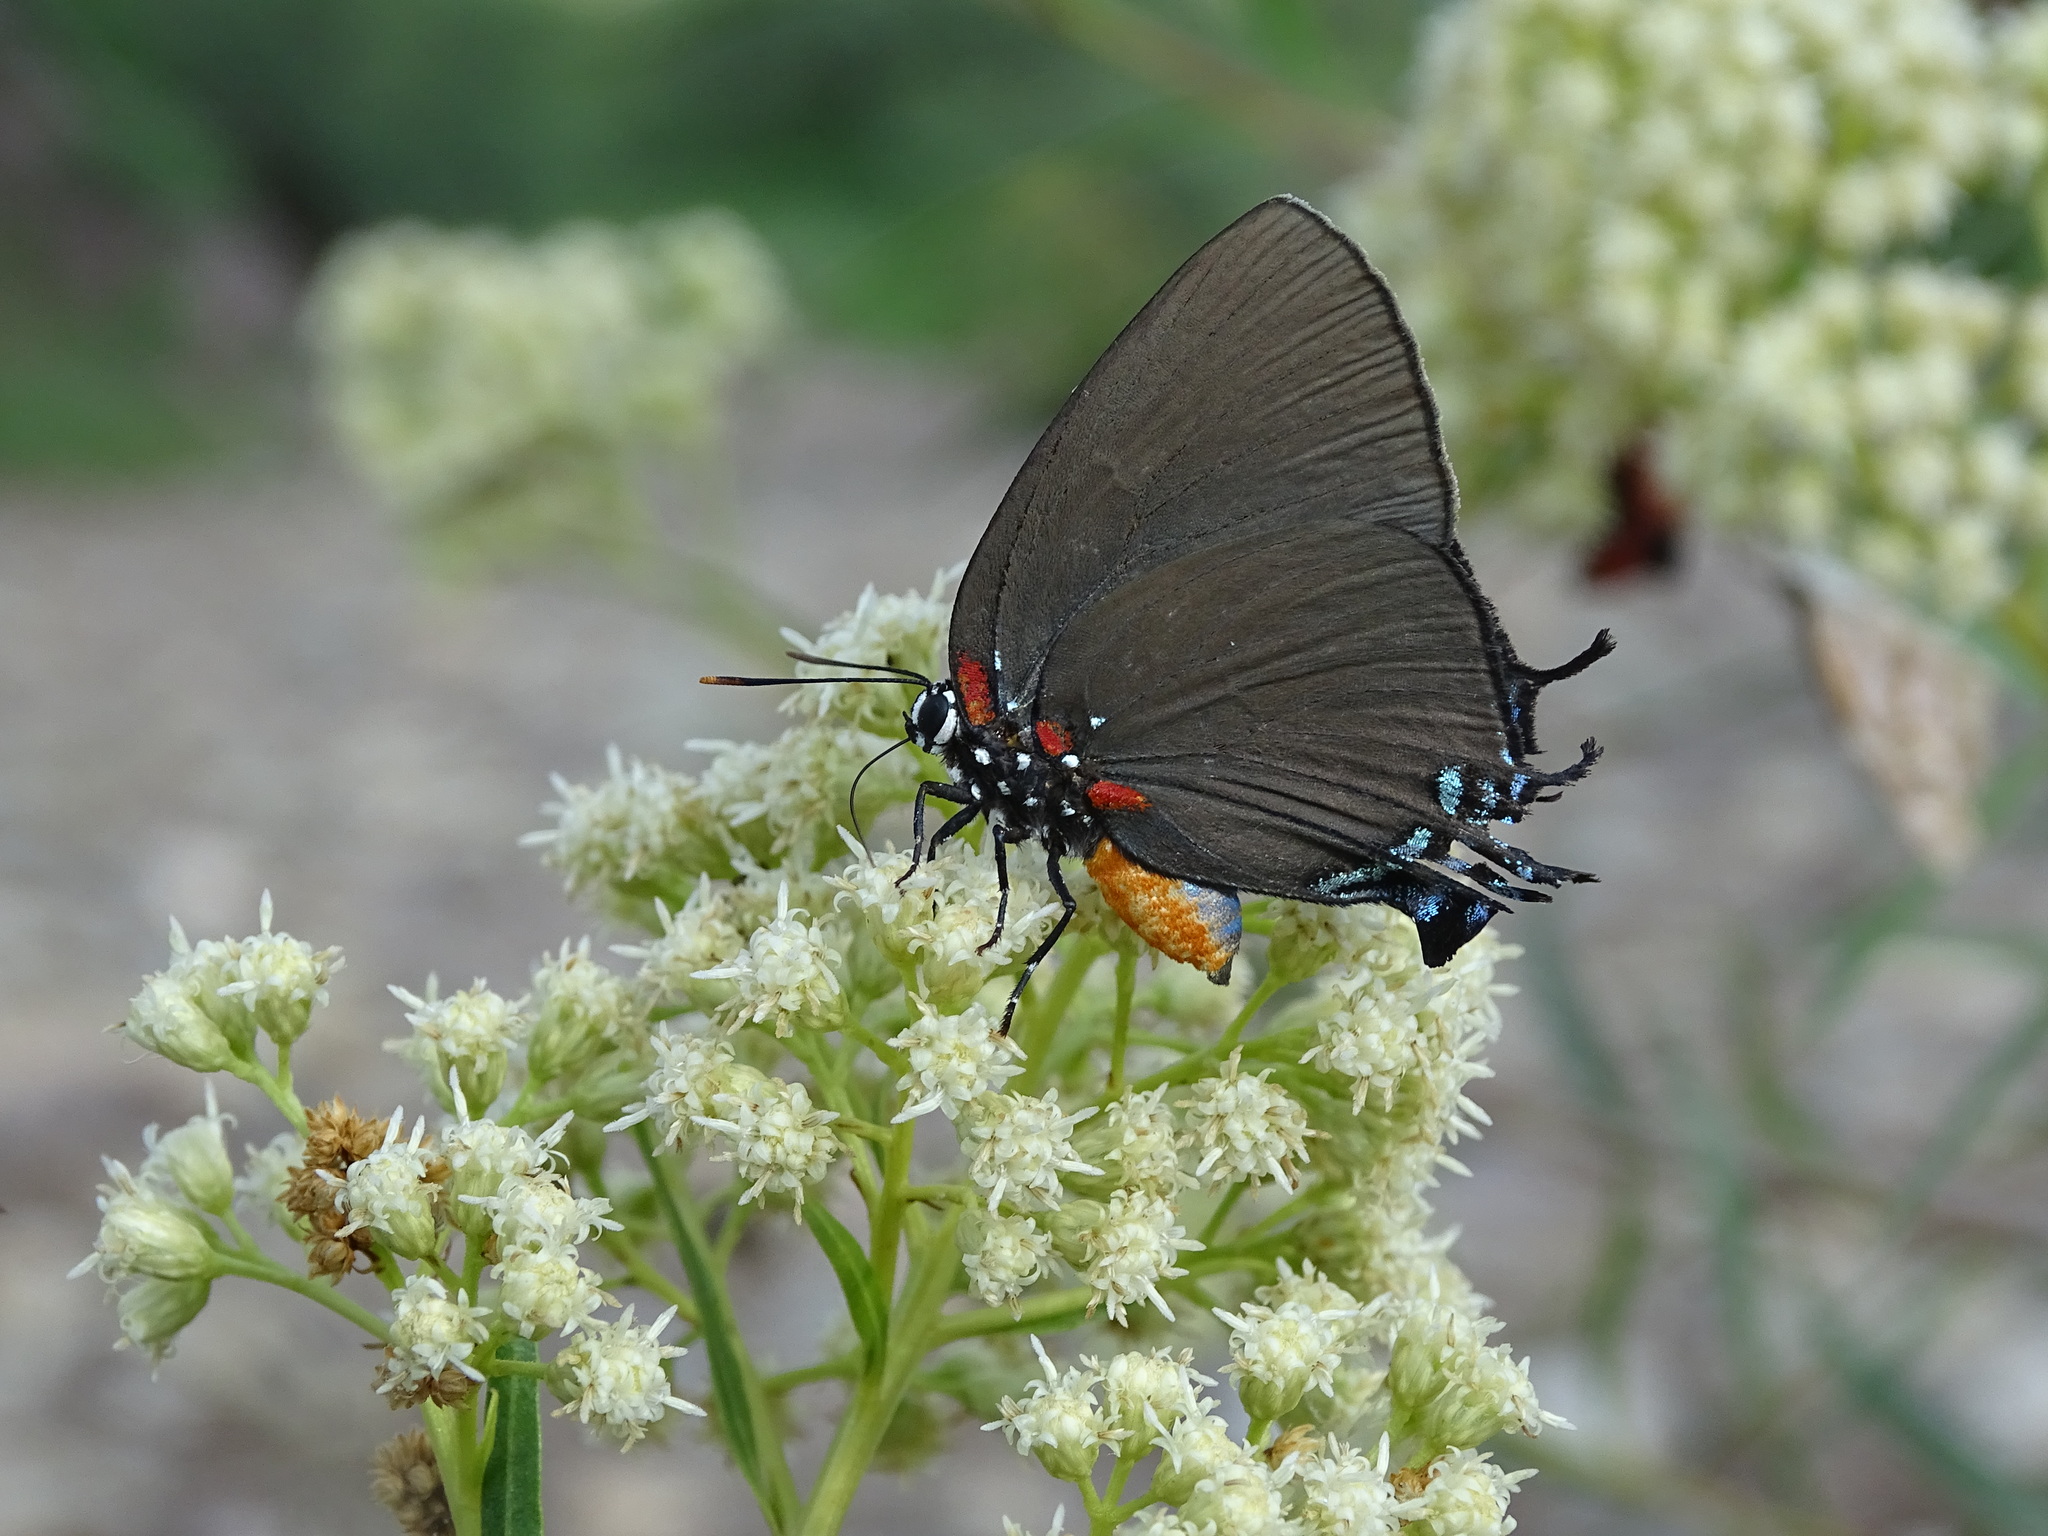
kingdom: Animalia
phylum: Arthropoda
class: Insecta
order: Lepidoptera
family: Lycaenidae
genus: Atlides
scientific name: Atlides halesus
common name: Great purple hairstreak
